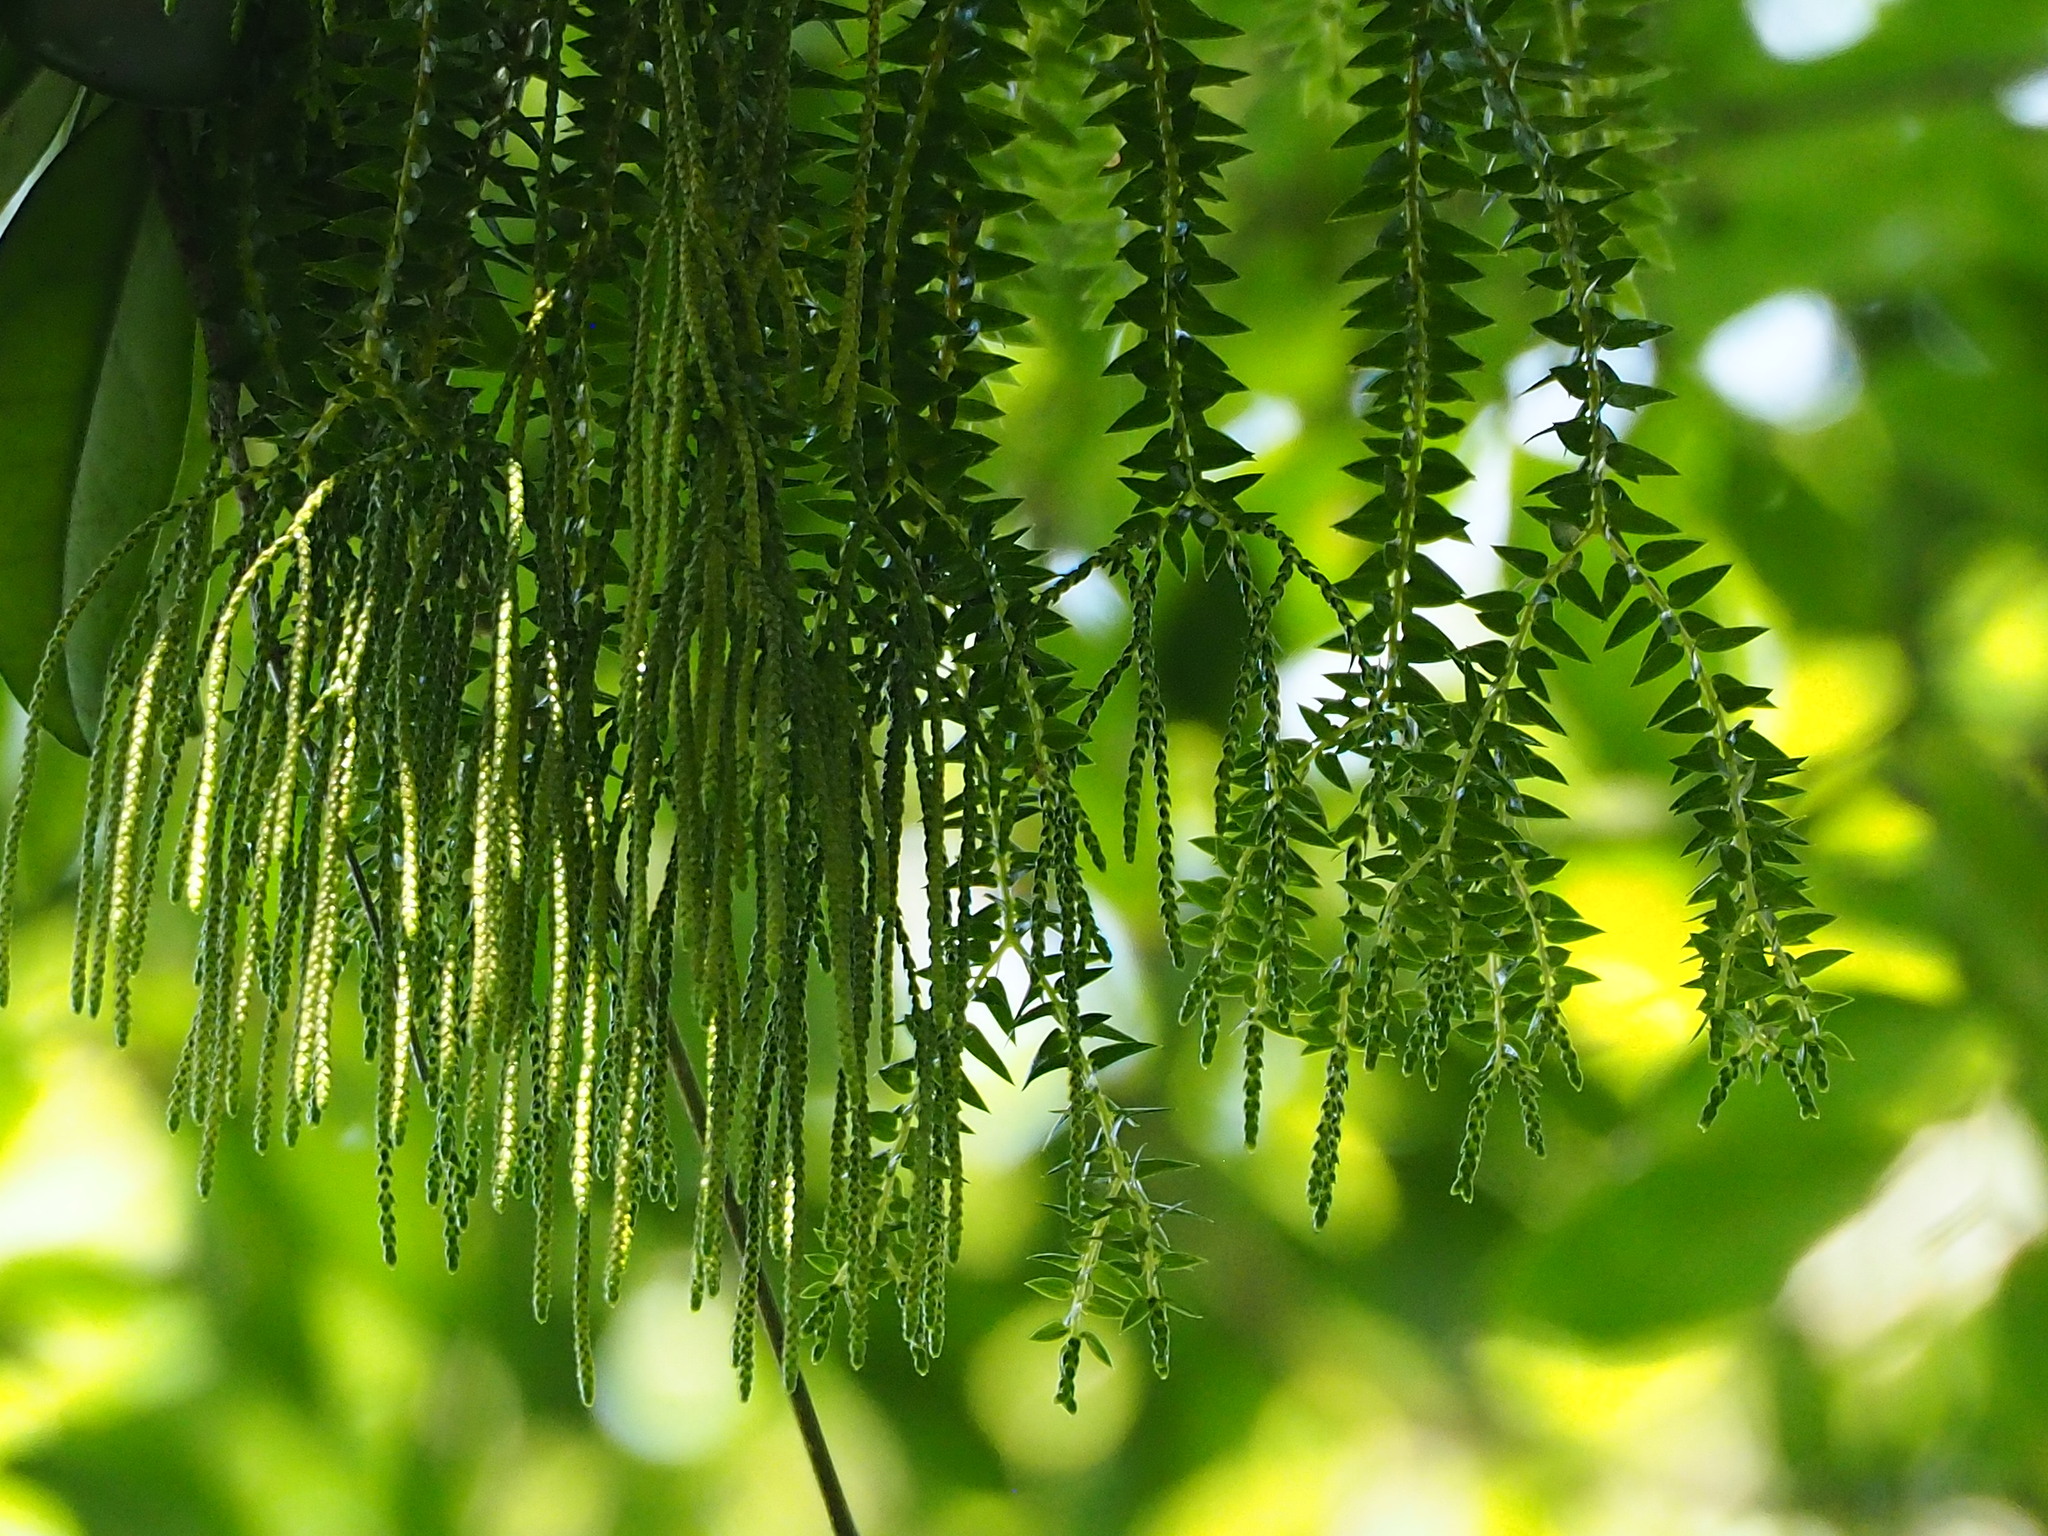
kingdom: Plantae
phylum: Tracheophyta
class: Lycopodiopsida
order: Lycopodiales
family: Lycopodiaceae
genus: Phlegmariurus
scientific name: Phlegmariurus phlegmaria
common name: Coarse tassel-fern
